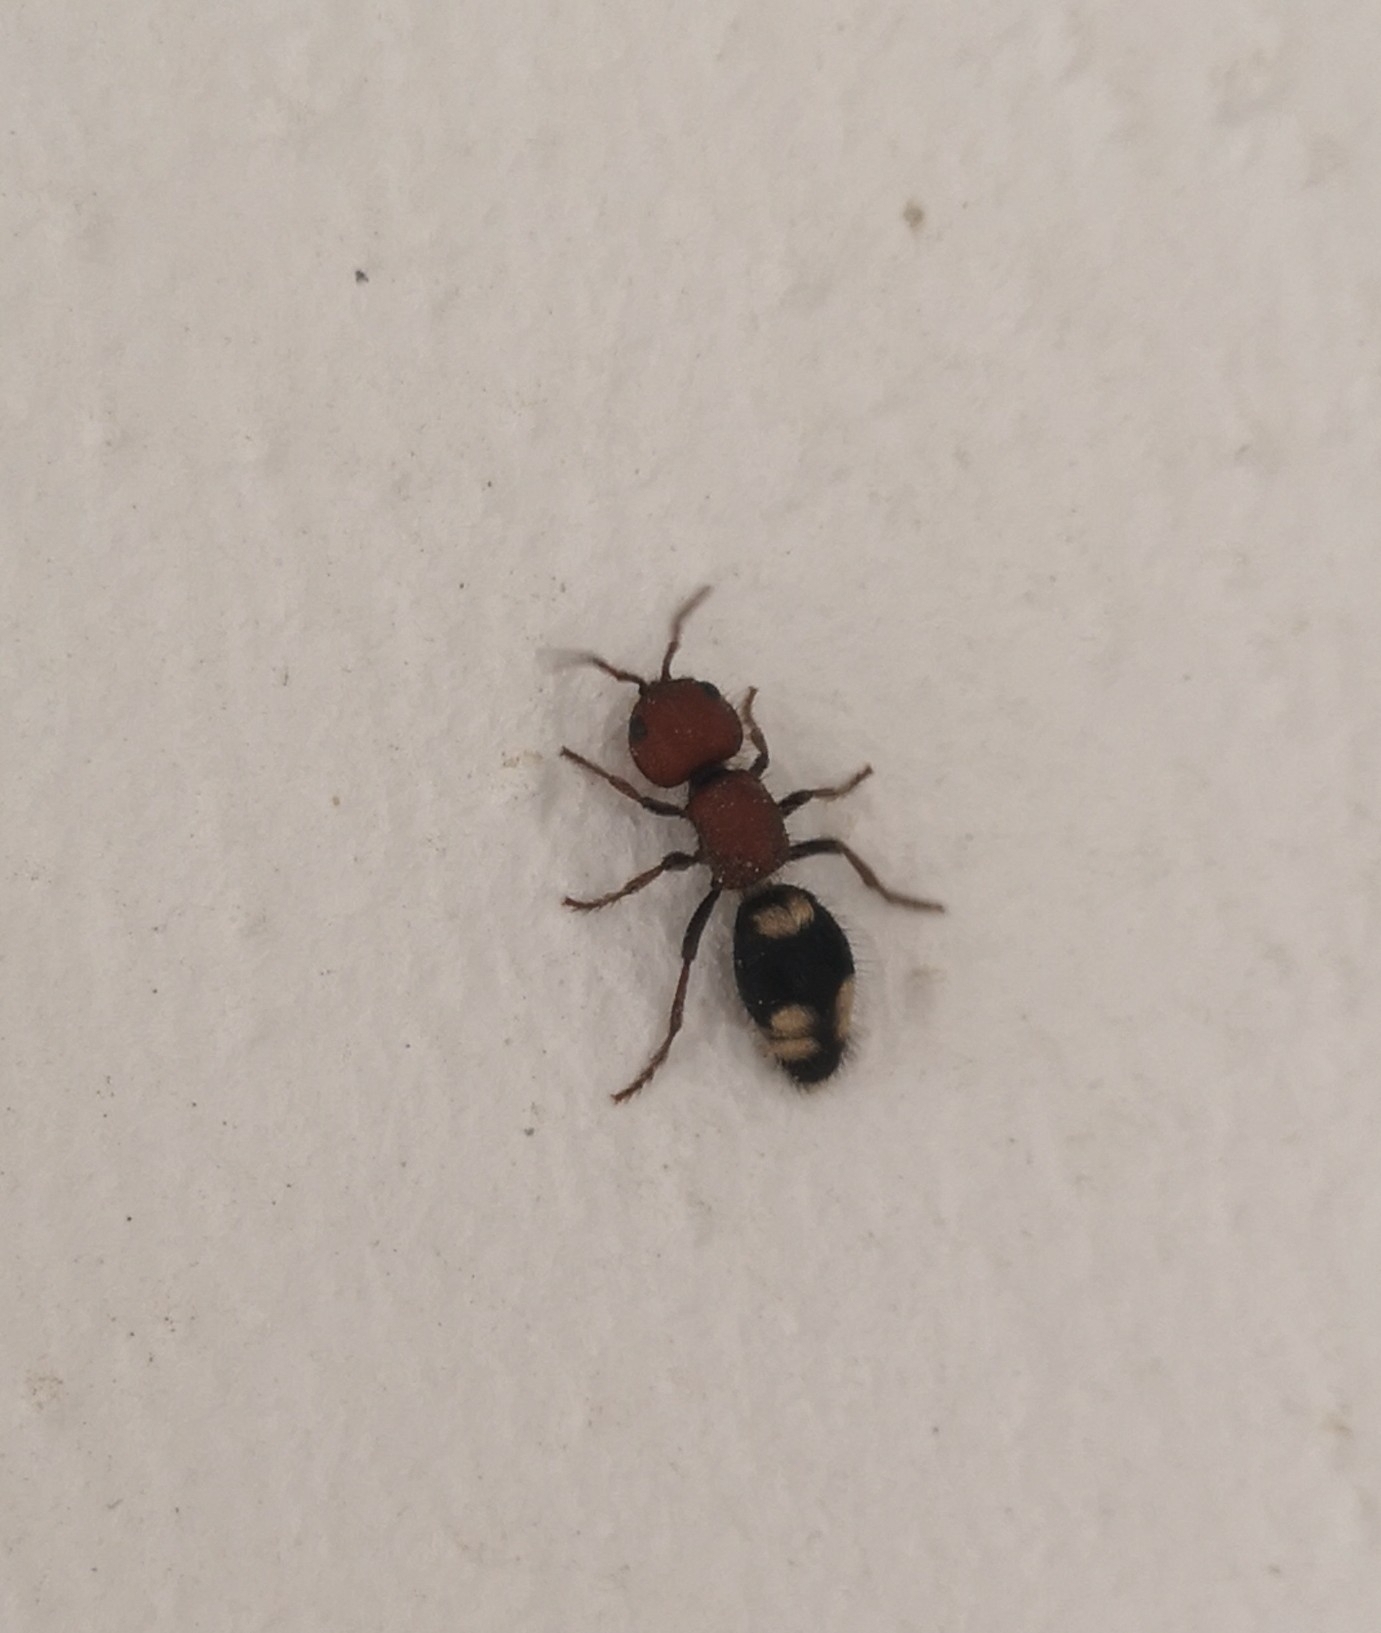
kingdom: Animalia
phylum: Arthropoda
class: Insecta
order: Hymenoptera
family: Mutillidae
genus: Mutilla
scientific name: Mutilla quinquemaculata
